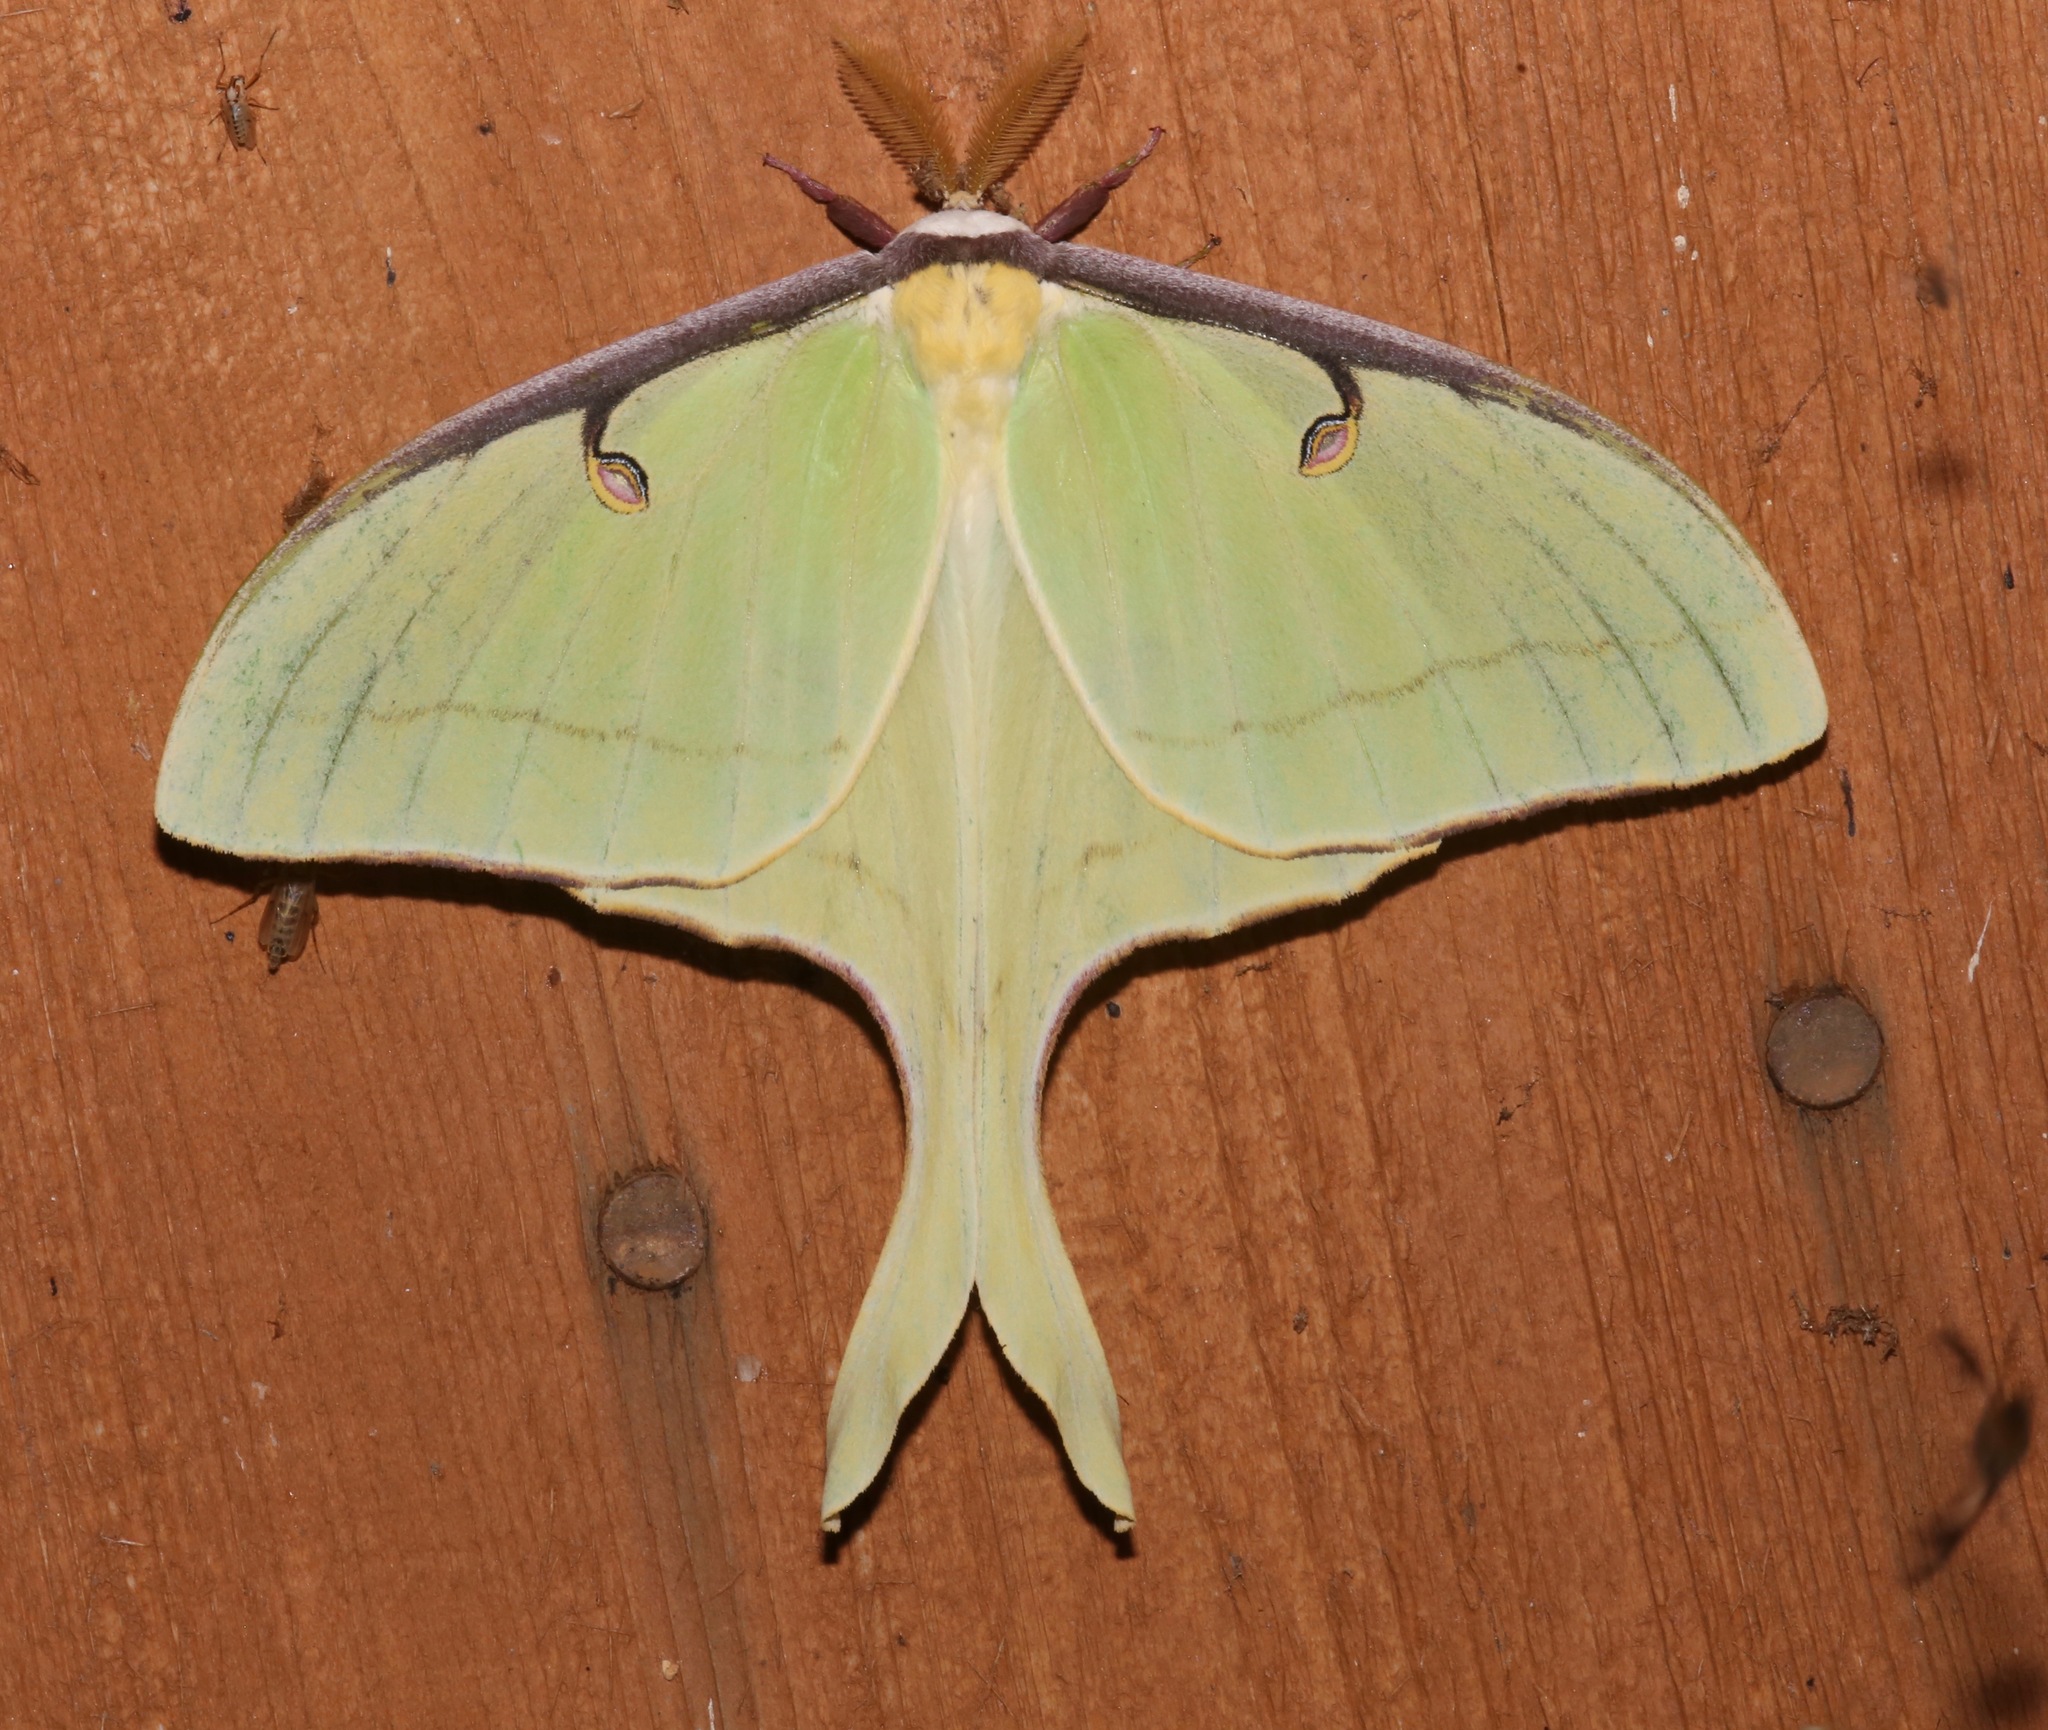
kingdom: Animalia
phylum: Arthropoda
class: Insecta
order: Lepidoptera
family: Saturniidae
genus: Actias
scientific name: Actias luna
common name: Luna moth
